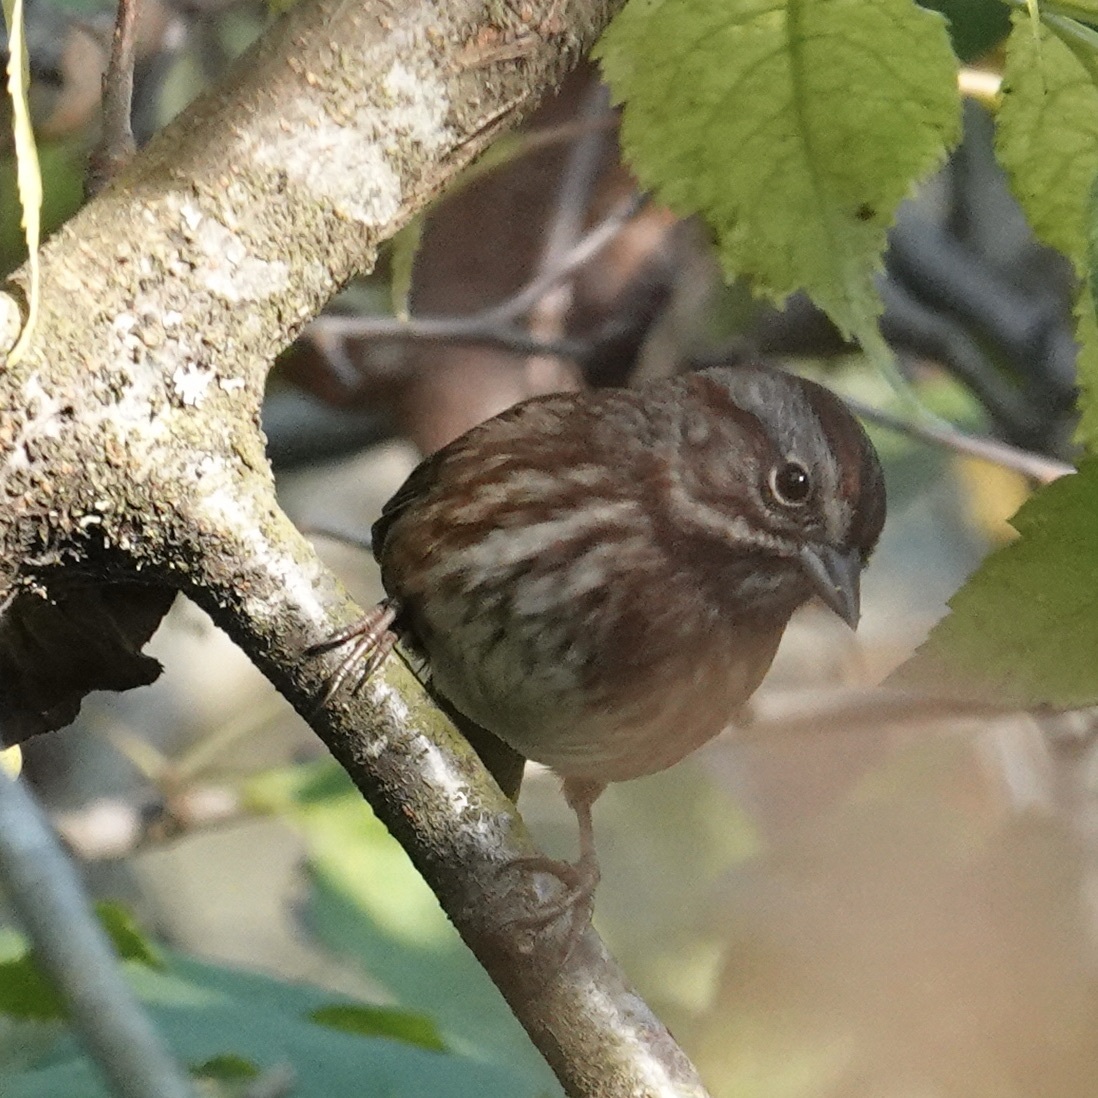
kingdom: Animalia
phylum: Chordata
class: Aves
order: Passeriformes
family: Passerellidae
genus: Melospiza
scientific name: Melospiza melodia
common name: Song sparrow
